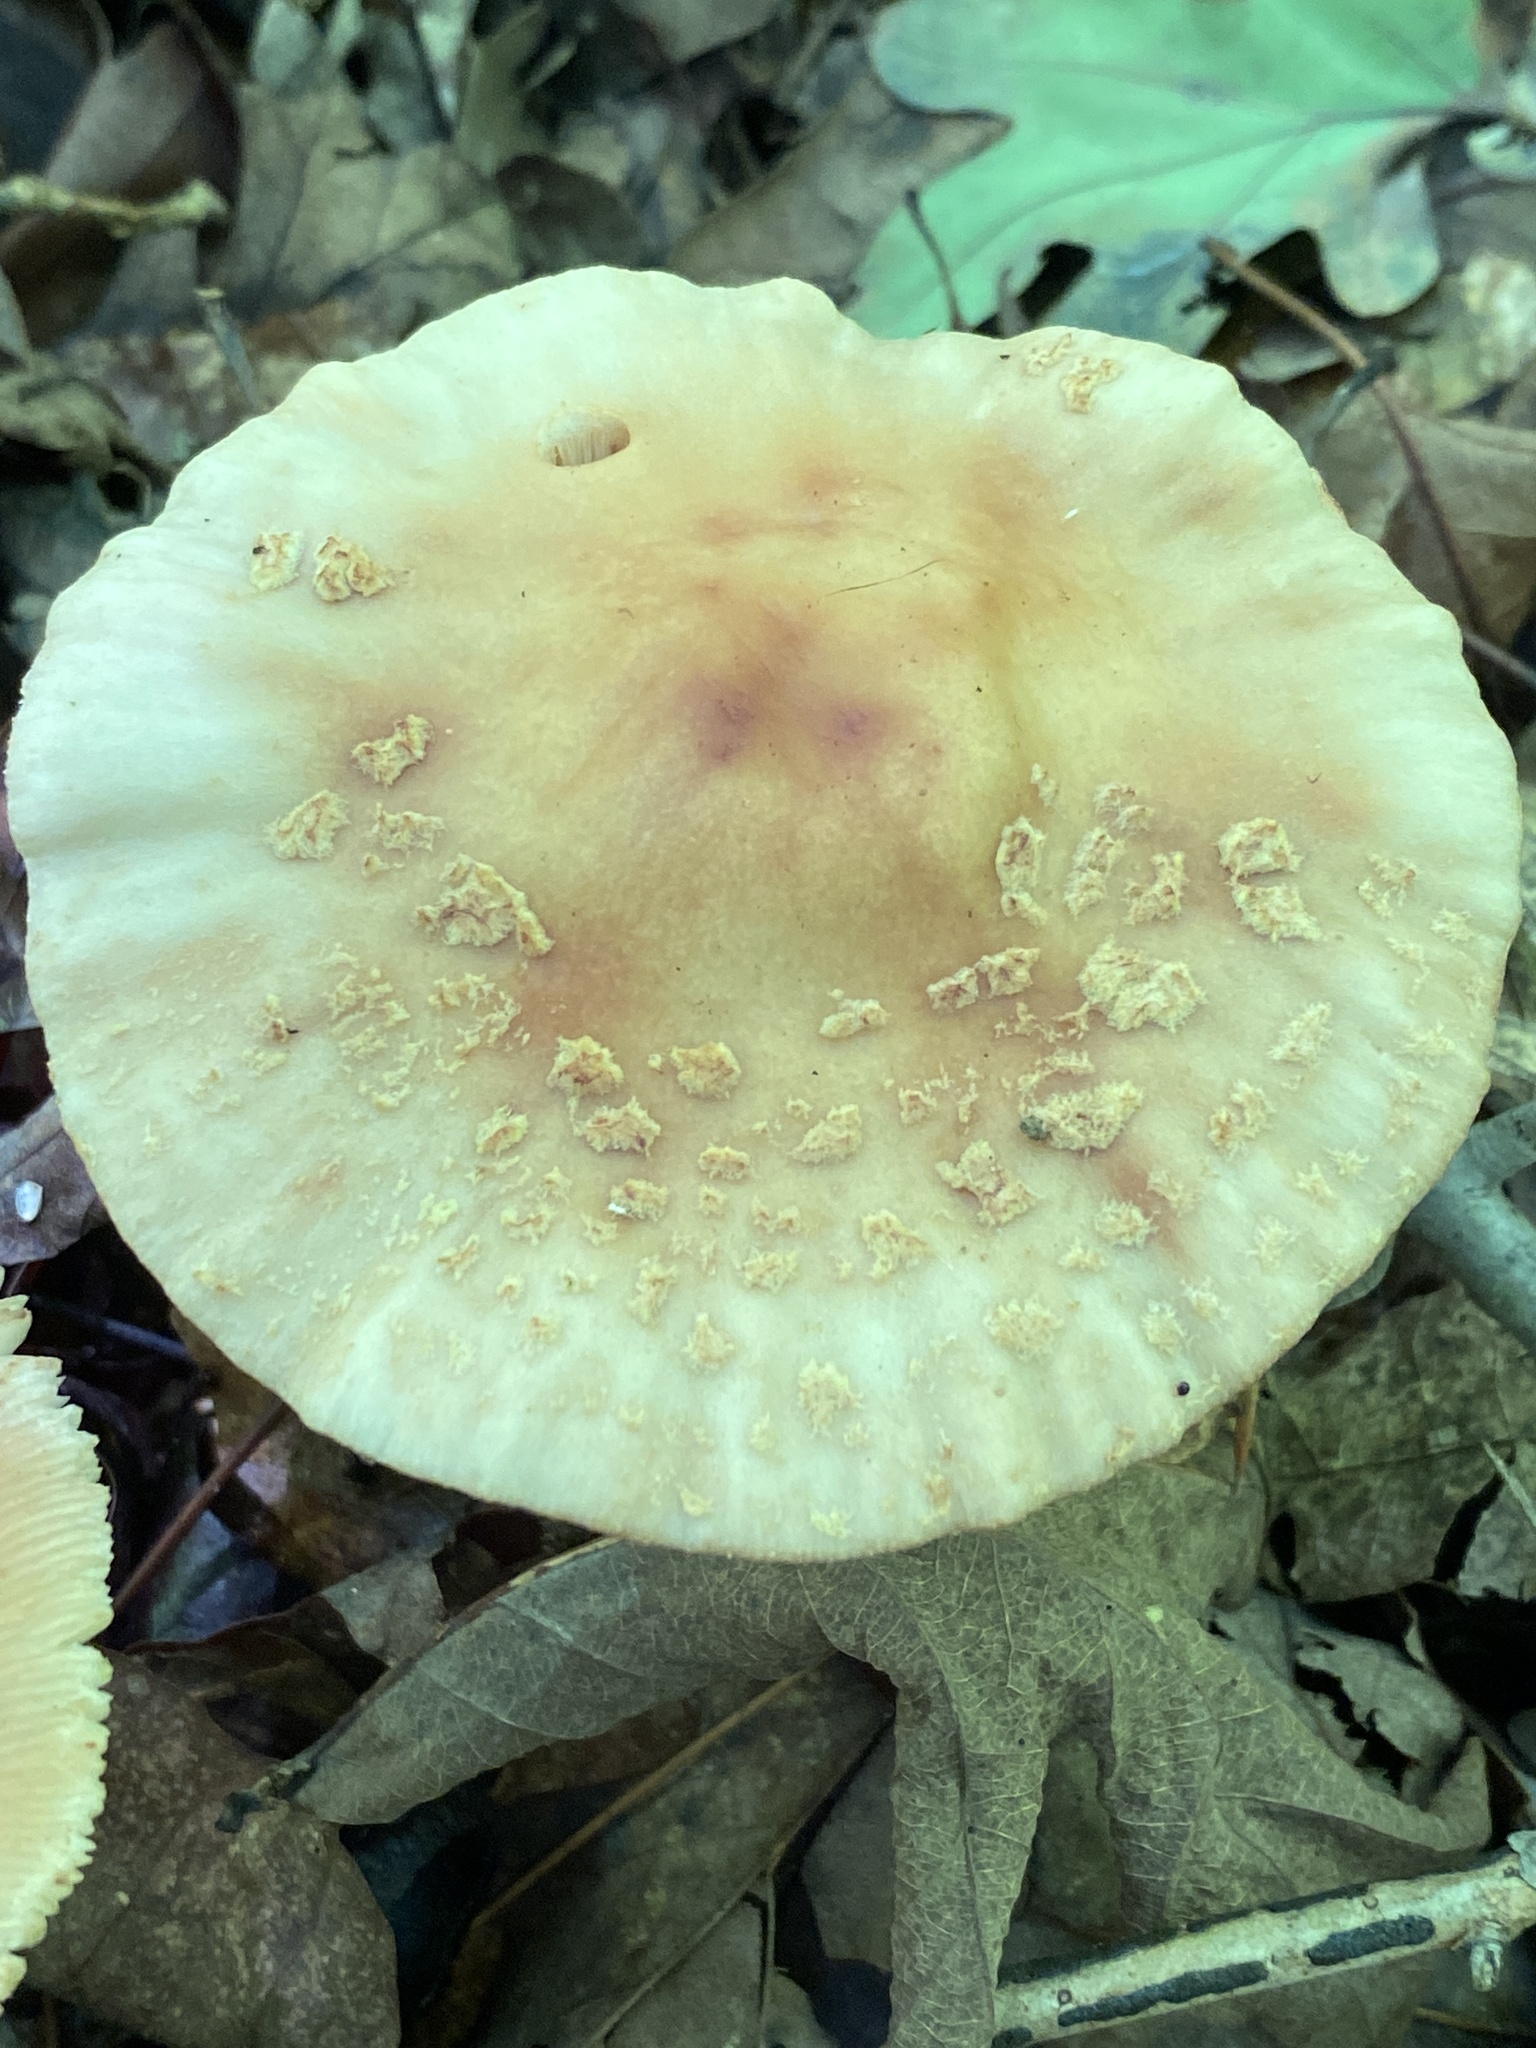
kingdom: Fungi
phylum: Basidiomycota
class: Agaricomycetes
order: Agaricales
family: Amanitaceae
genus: Amanita
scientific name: Amanita rubescens
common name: Blusher
